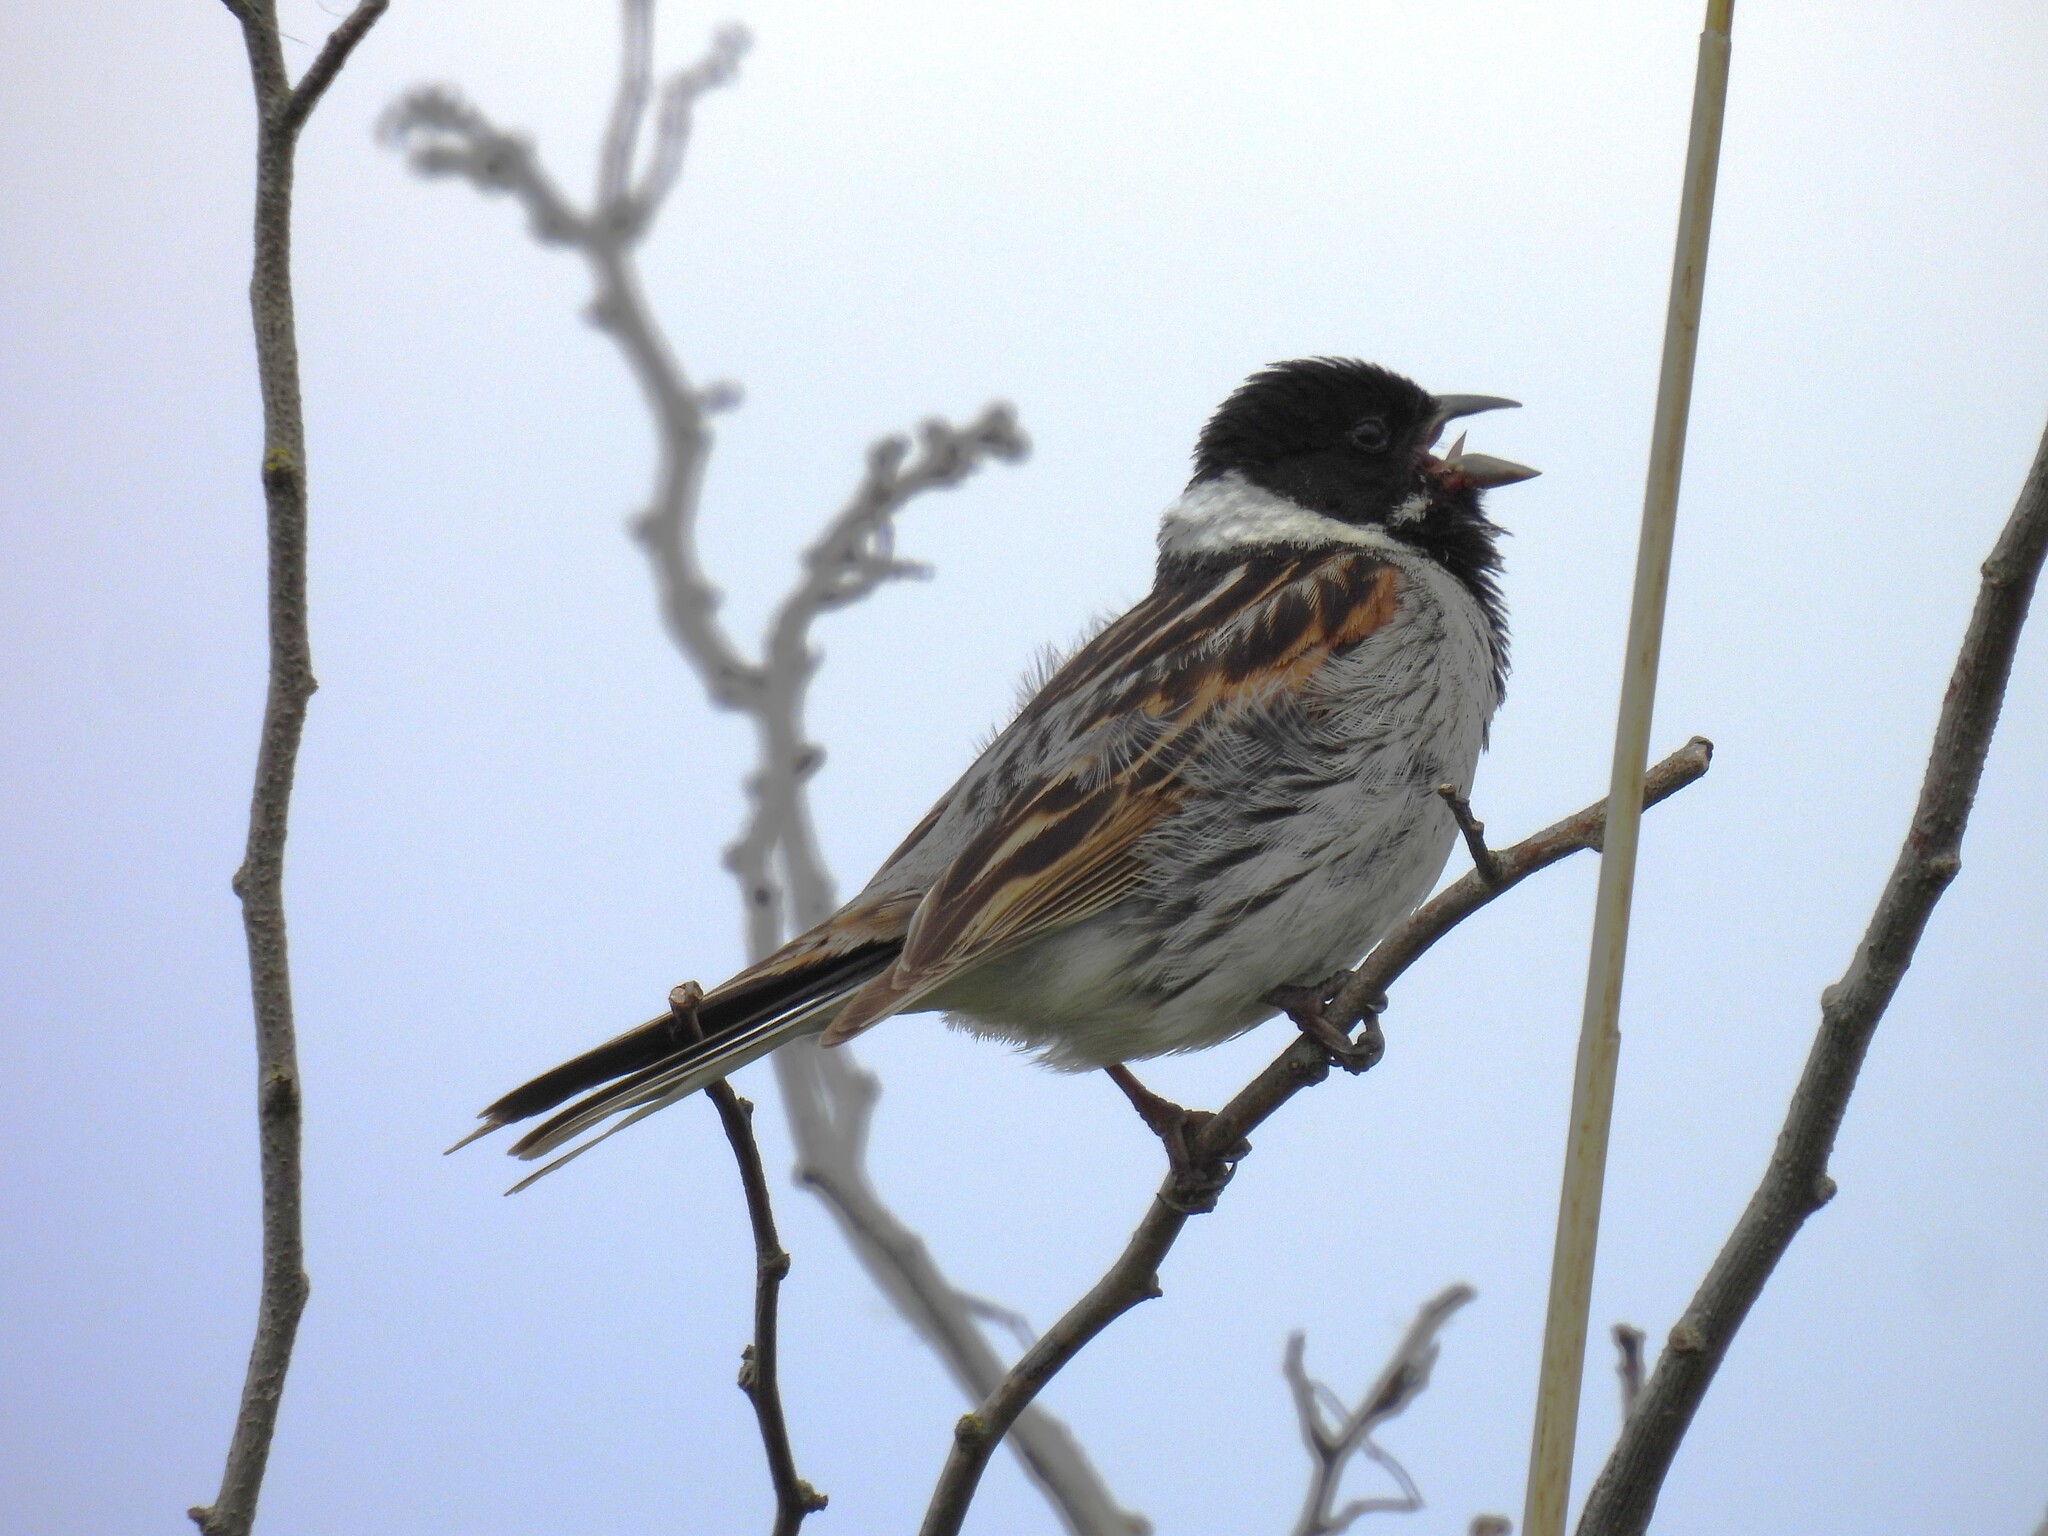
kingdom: Animalia
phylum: Chordata
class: Aves
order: Passeriformes
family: Emberizidae
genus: Emberiza
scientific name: Emberiza schoeniclus
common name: Reed bunting
